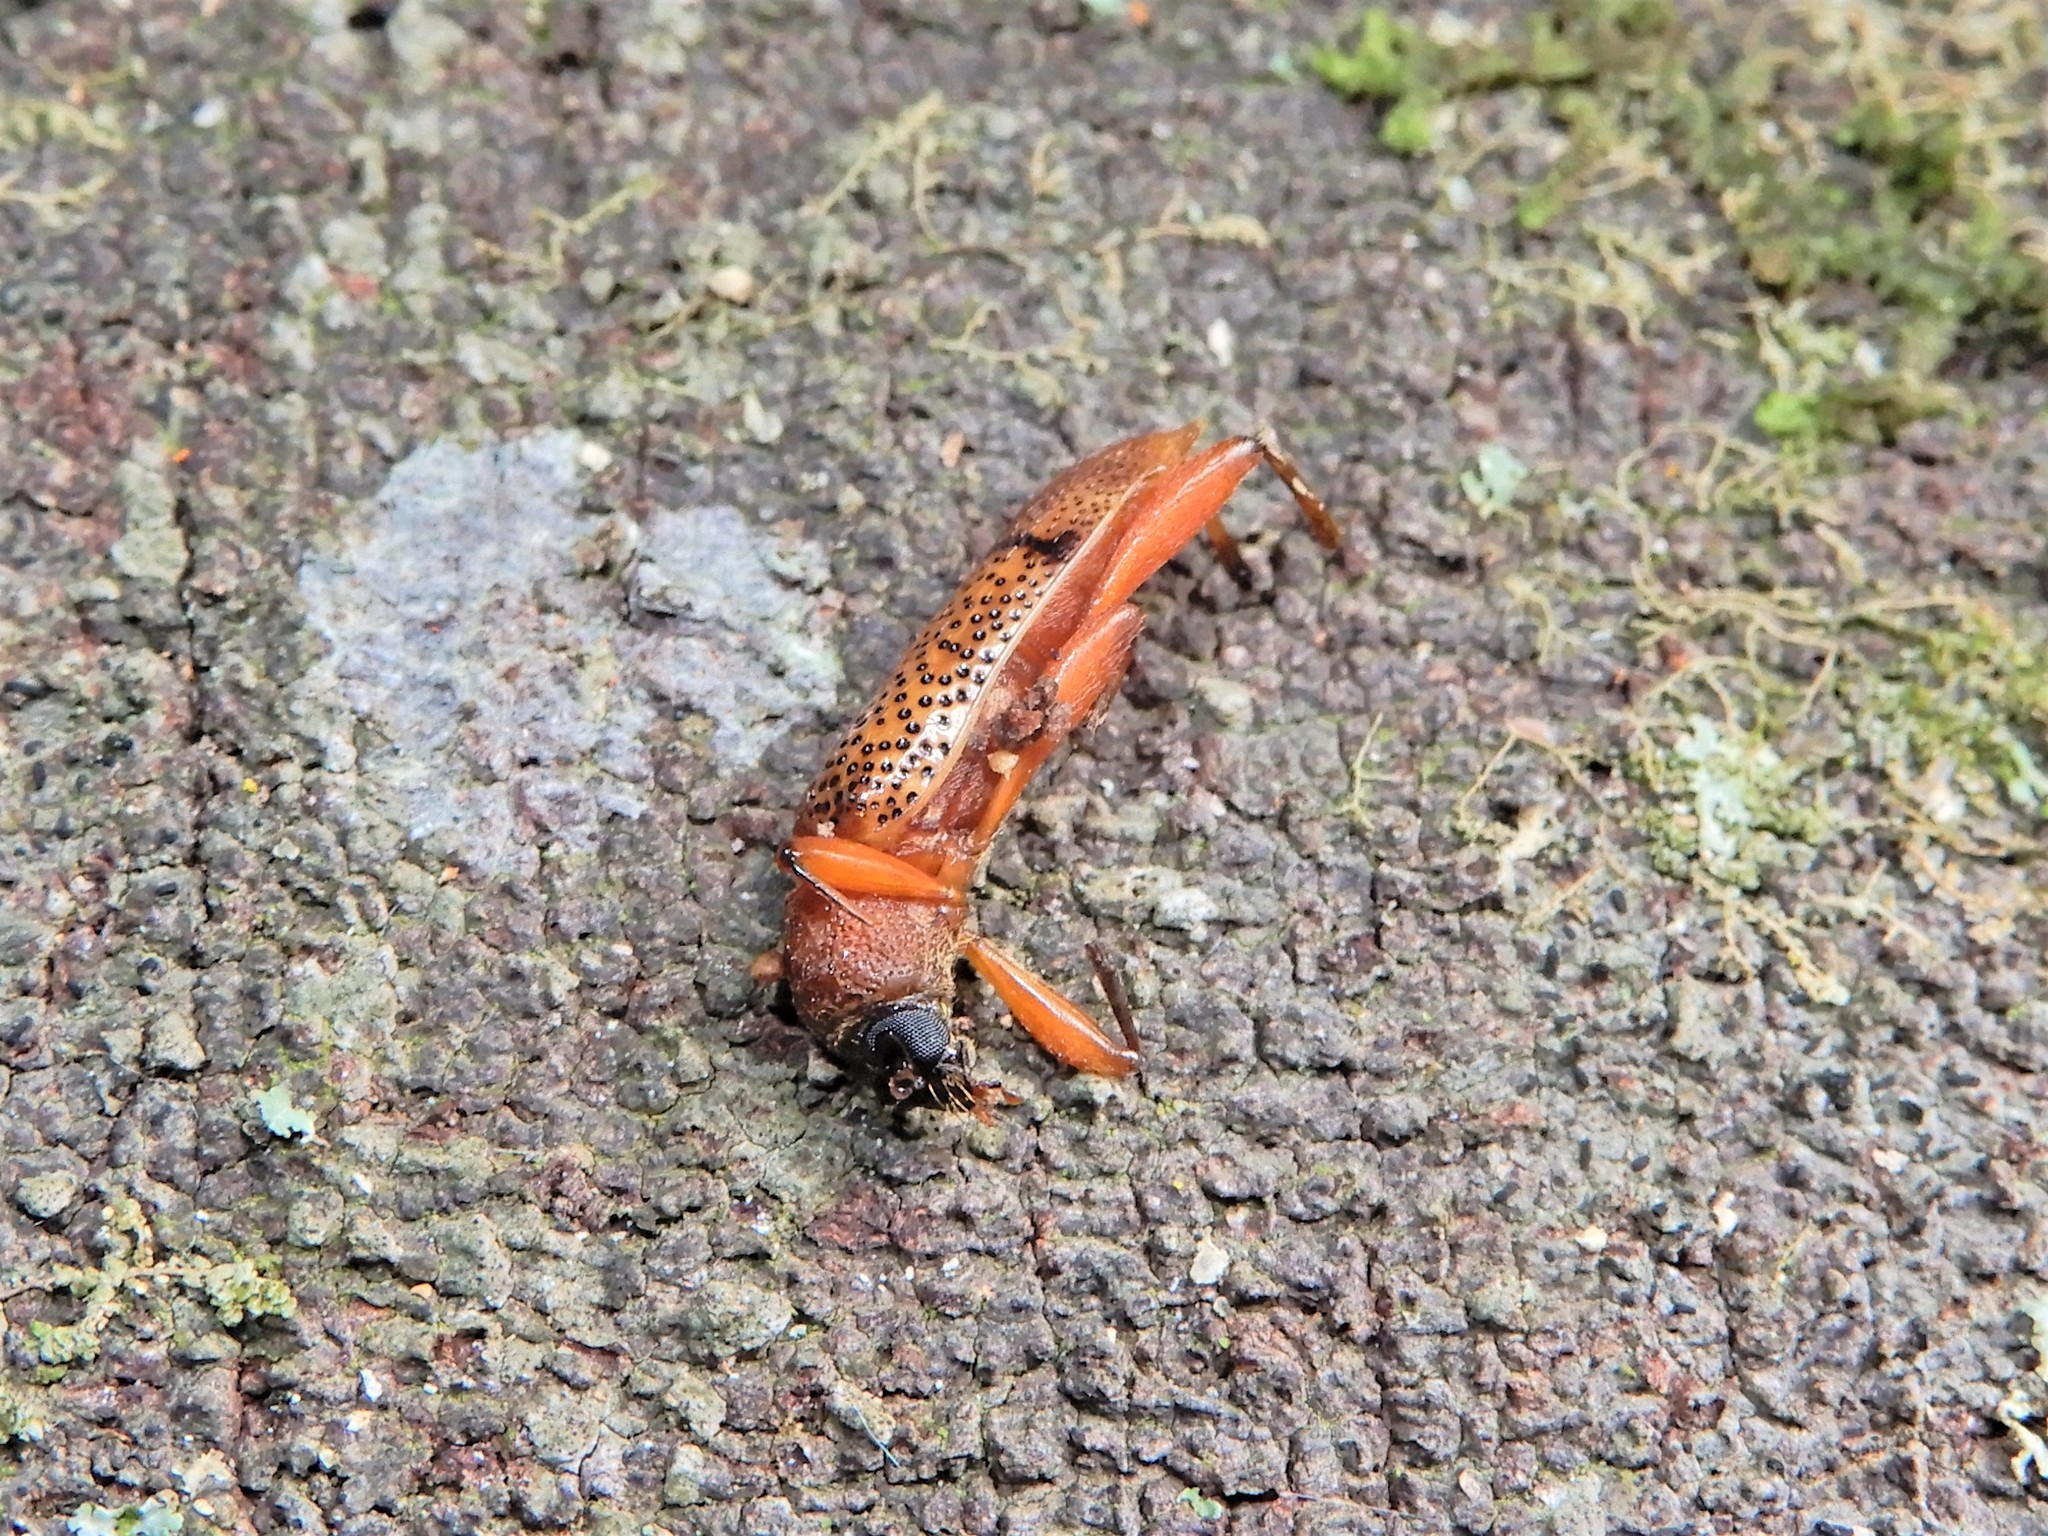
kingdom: Animalia
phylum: Arthropoda
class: Insecta
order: Coleoptera
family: Cerambycidae
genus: Xuthodes
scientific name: Xuthodes punctipennis
